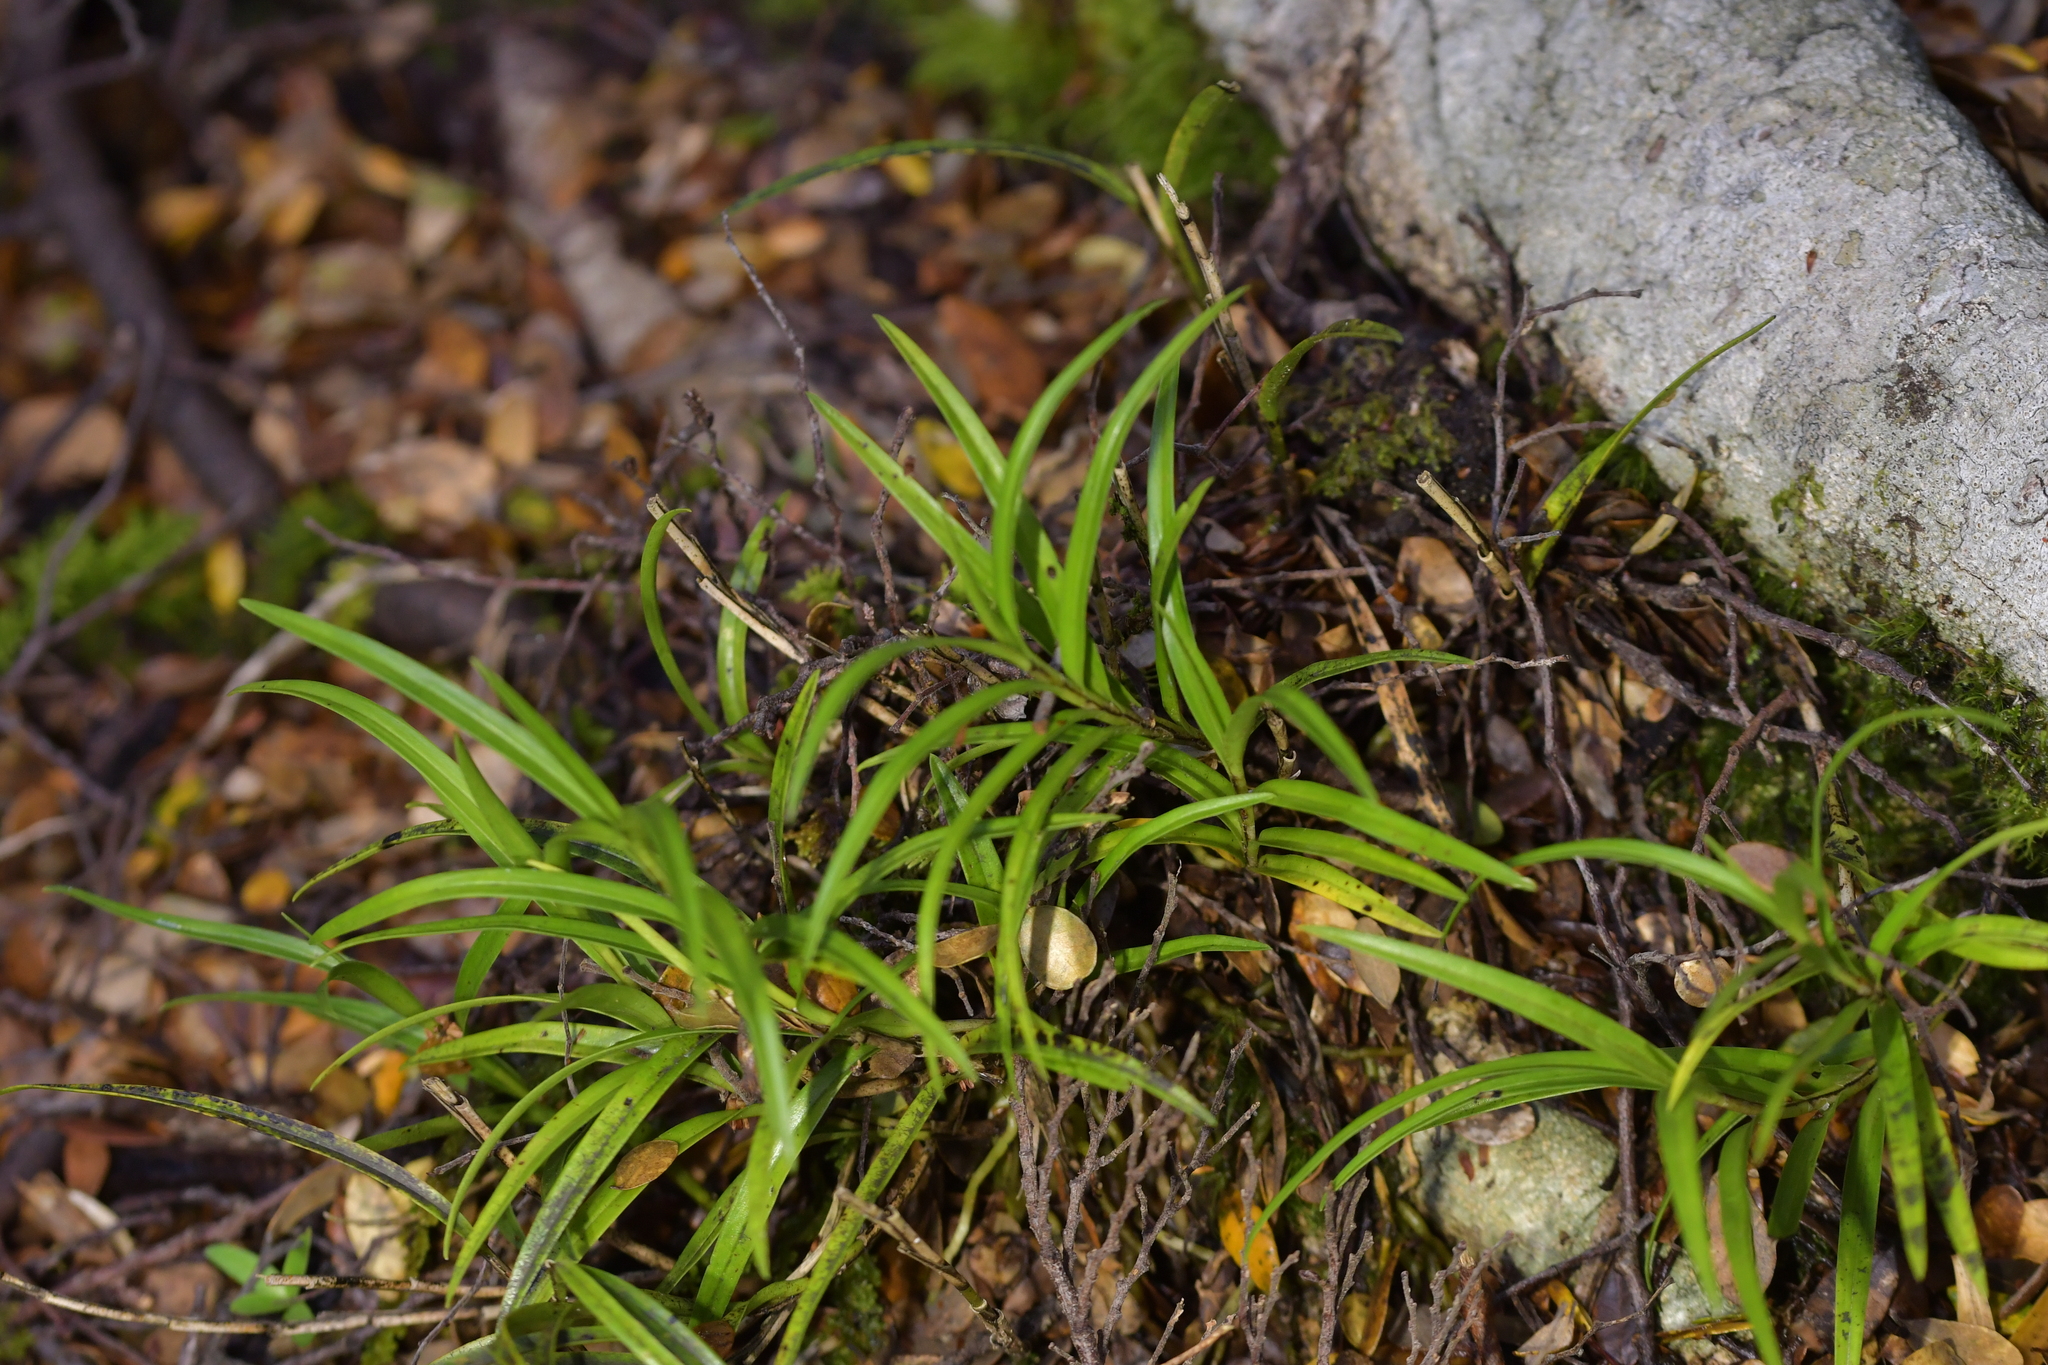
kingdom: Plantae
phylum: Tracheophyta
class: Liliopsida
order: Asparagales
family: Orchidaceae
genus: Earina
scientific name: Earina autumnalis
